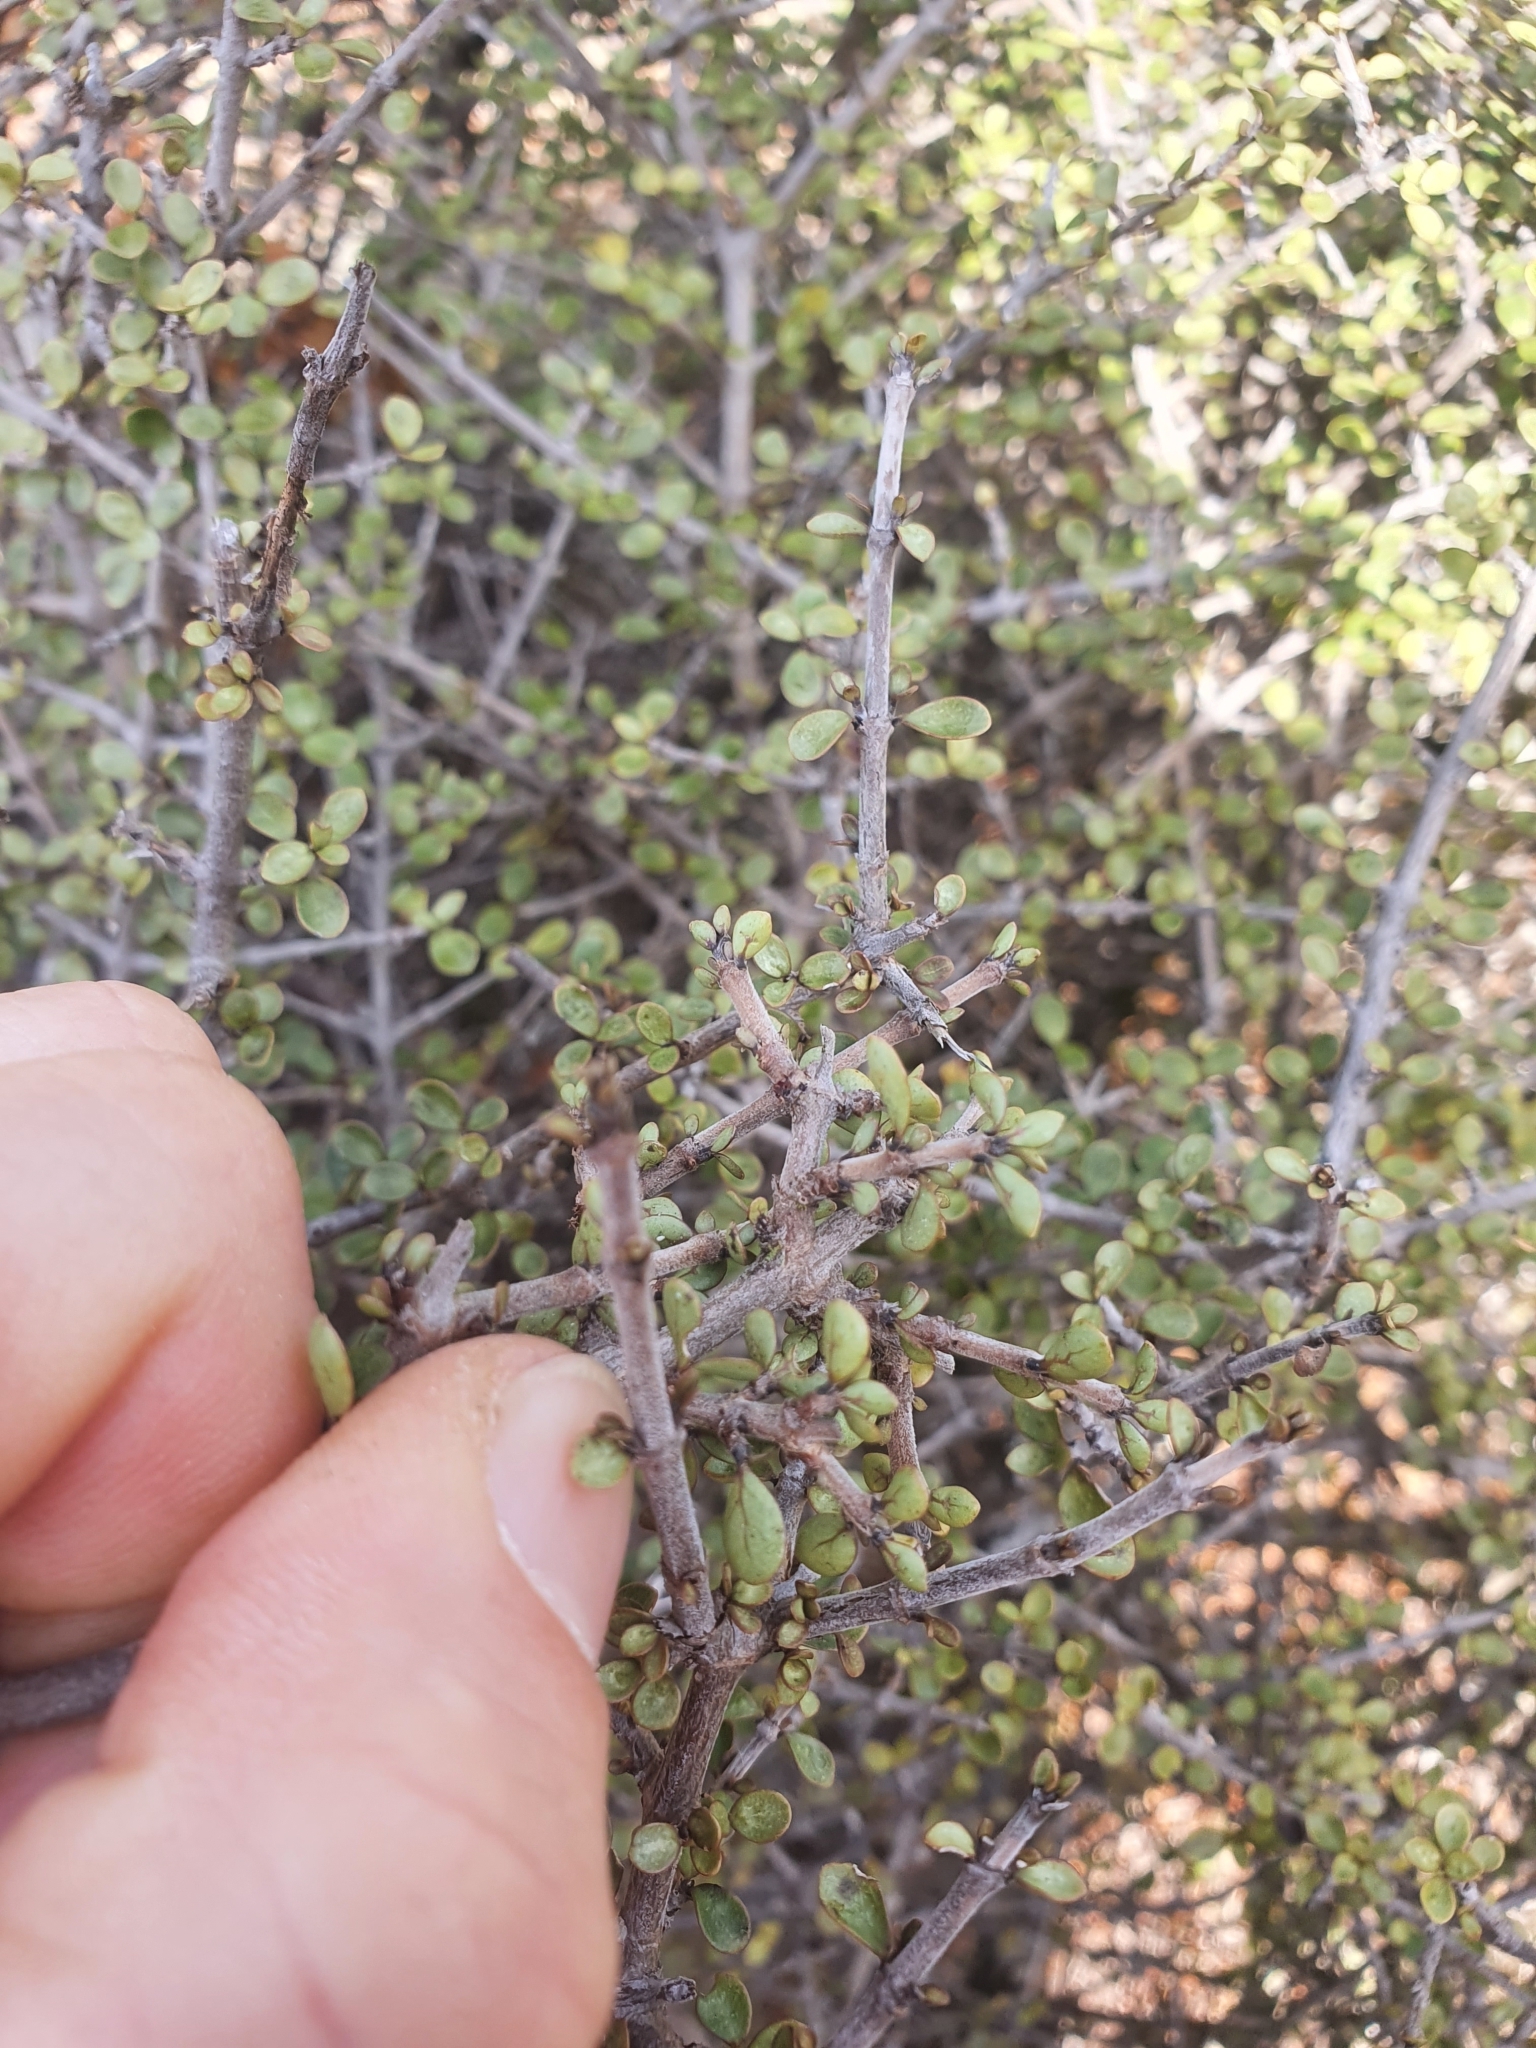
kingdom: Plantae
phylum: Tracheophyta
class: Magnoliopsida
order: Gentianales
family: Rubiaceae
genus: Coprosma
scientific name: Coprosma dumosa
